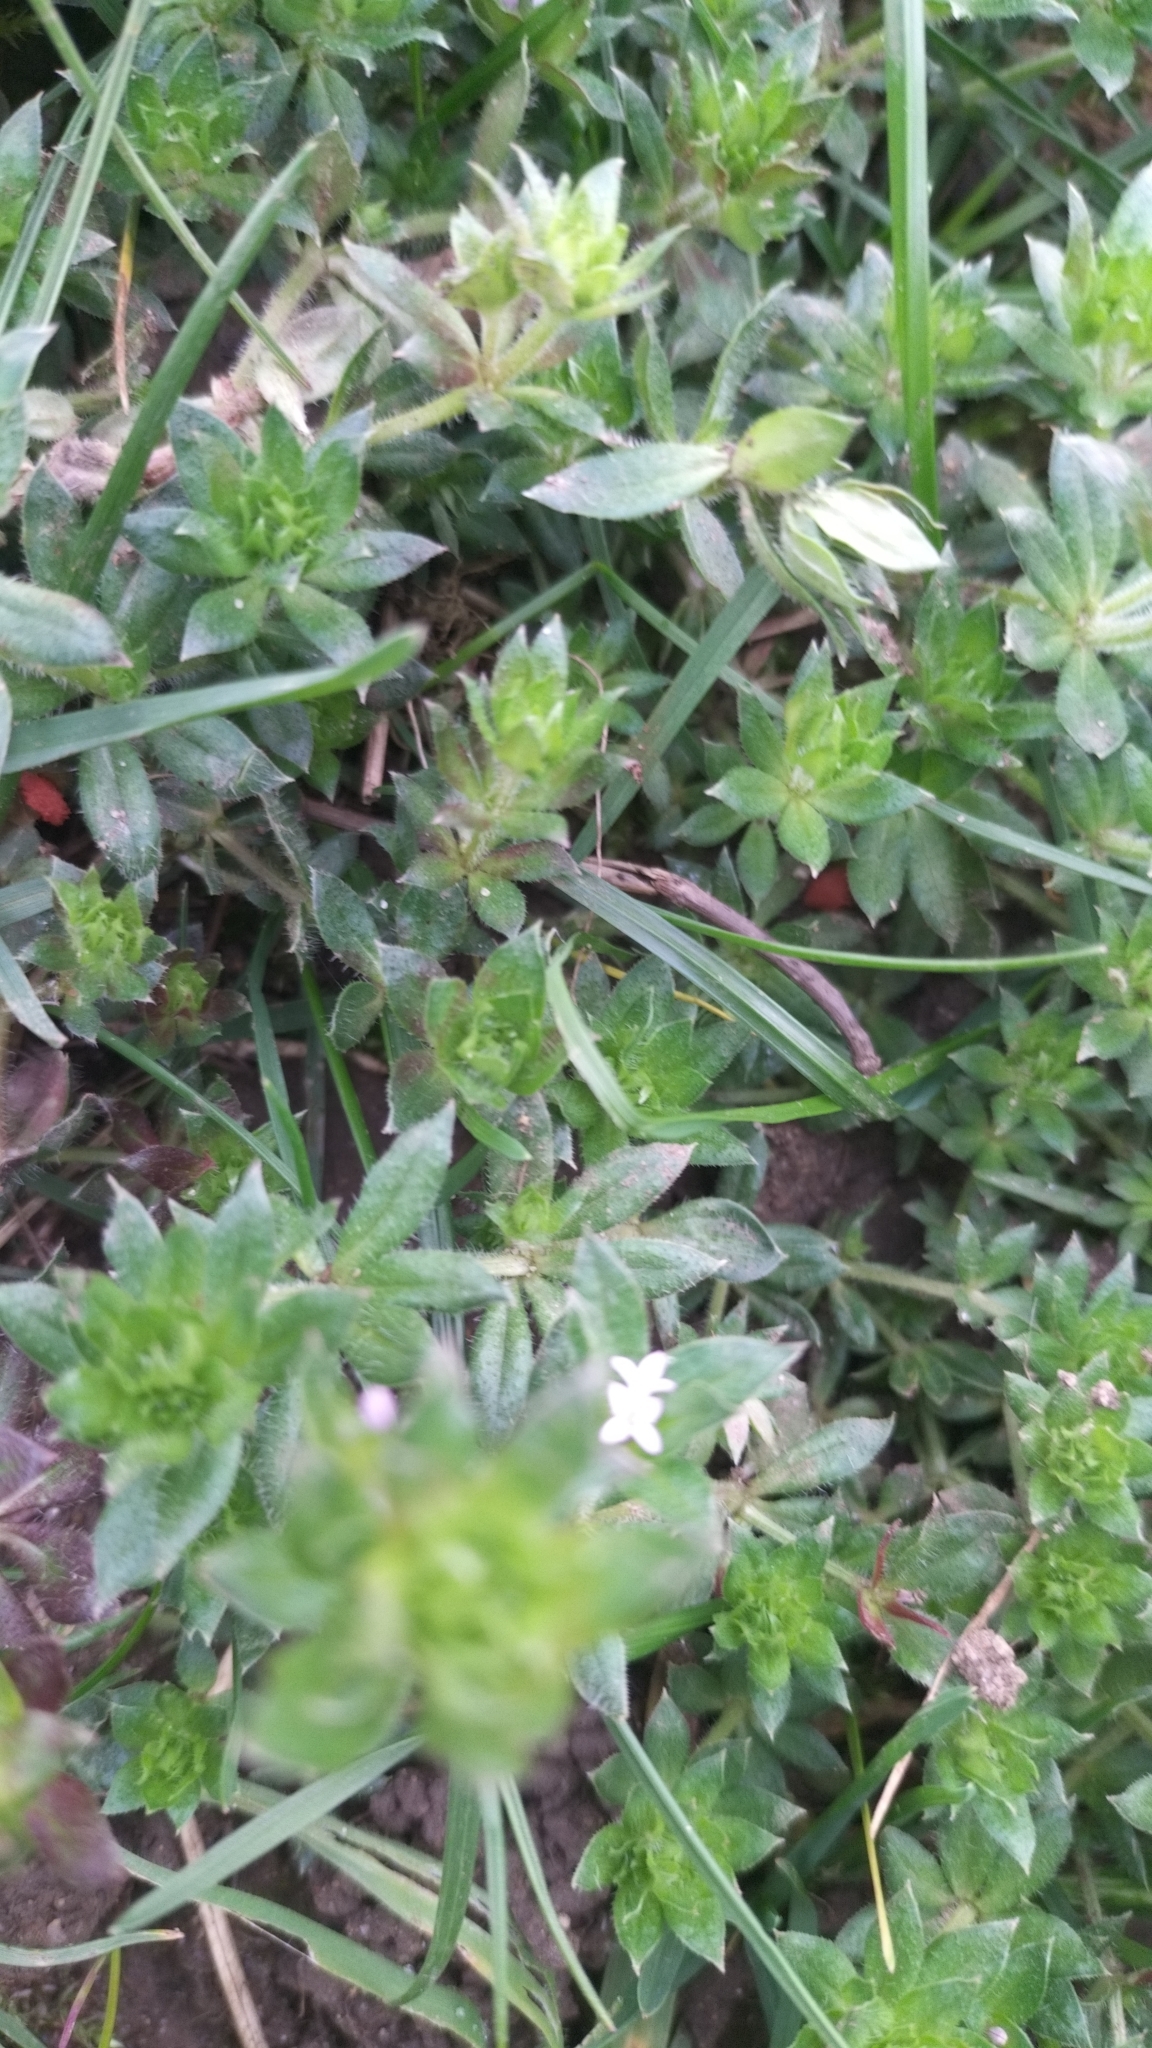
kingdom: Plantae
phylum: Tracheophyta
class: Magnoliopsida
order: Gentianales
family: Rubiaceae
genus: Sherardia
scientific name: Sherardia arvensis
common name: Field madder
